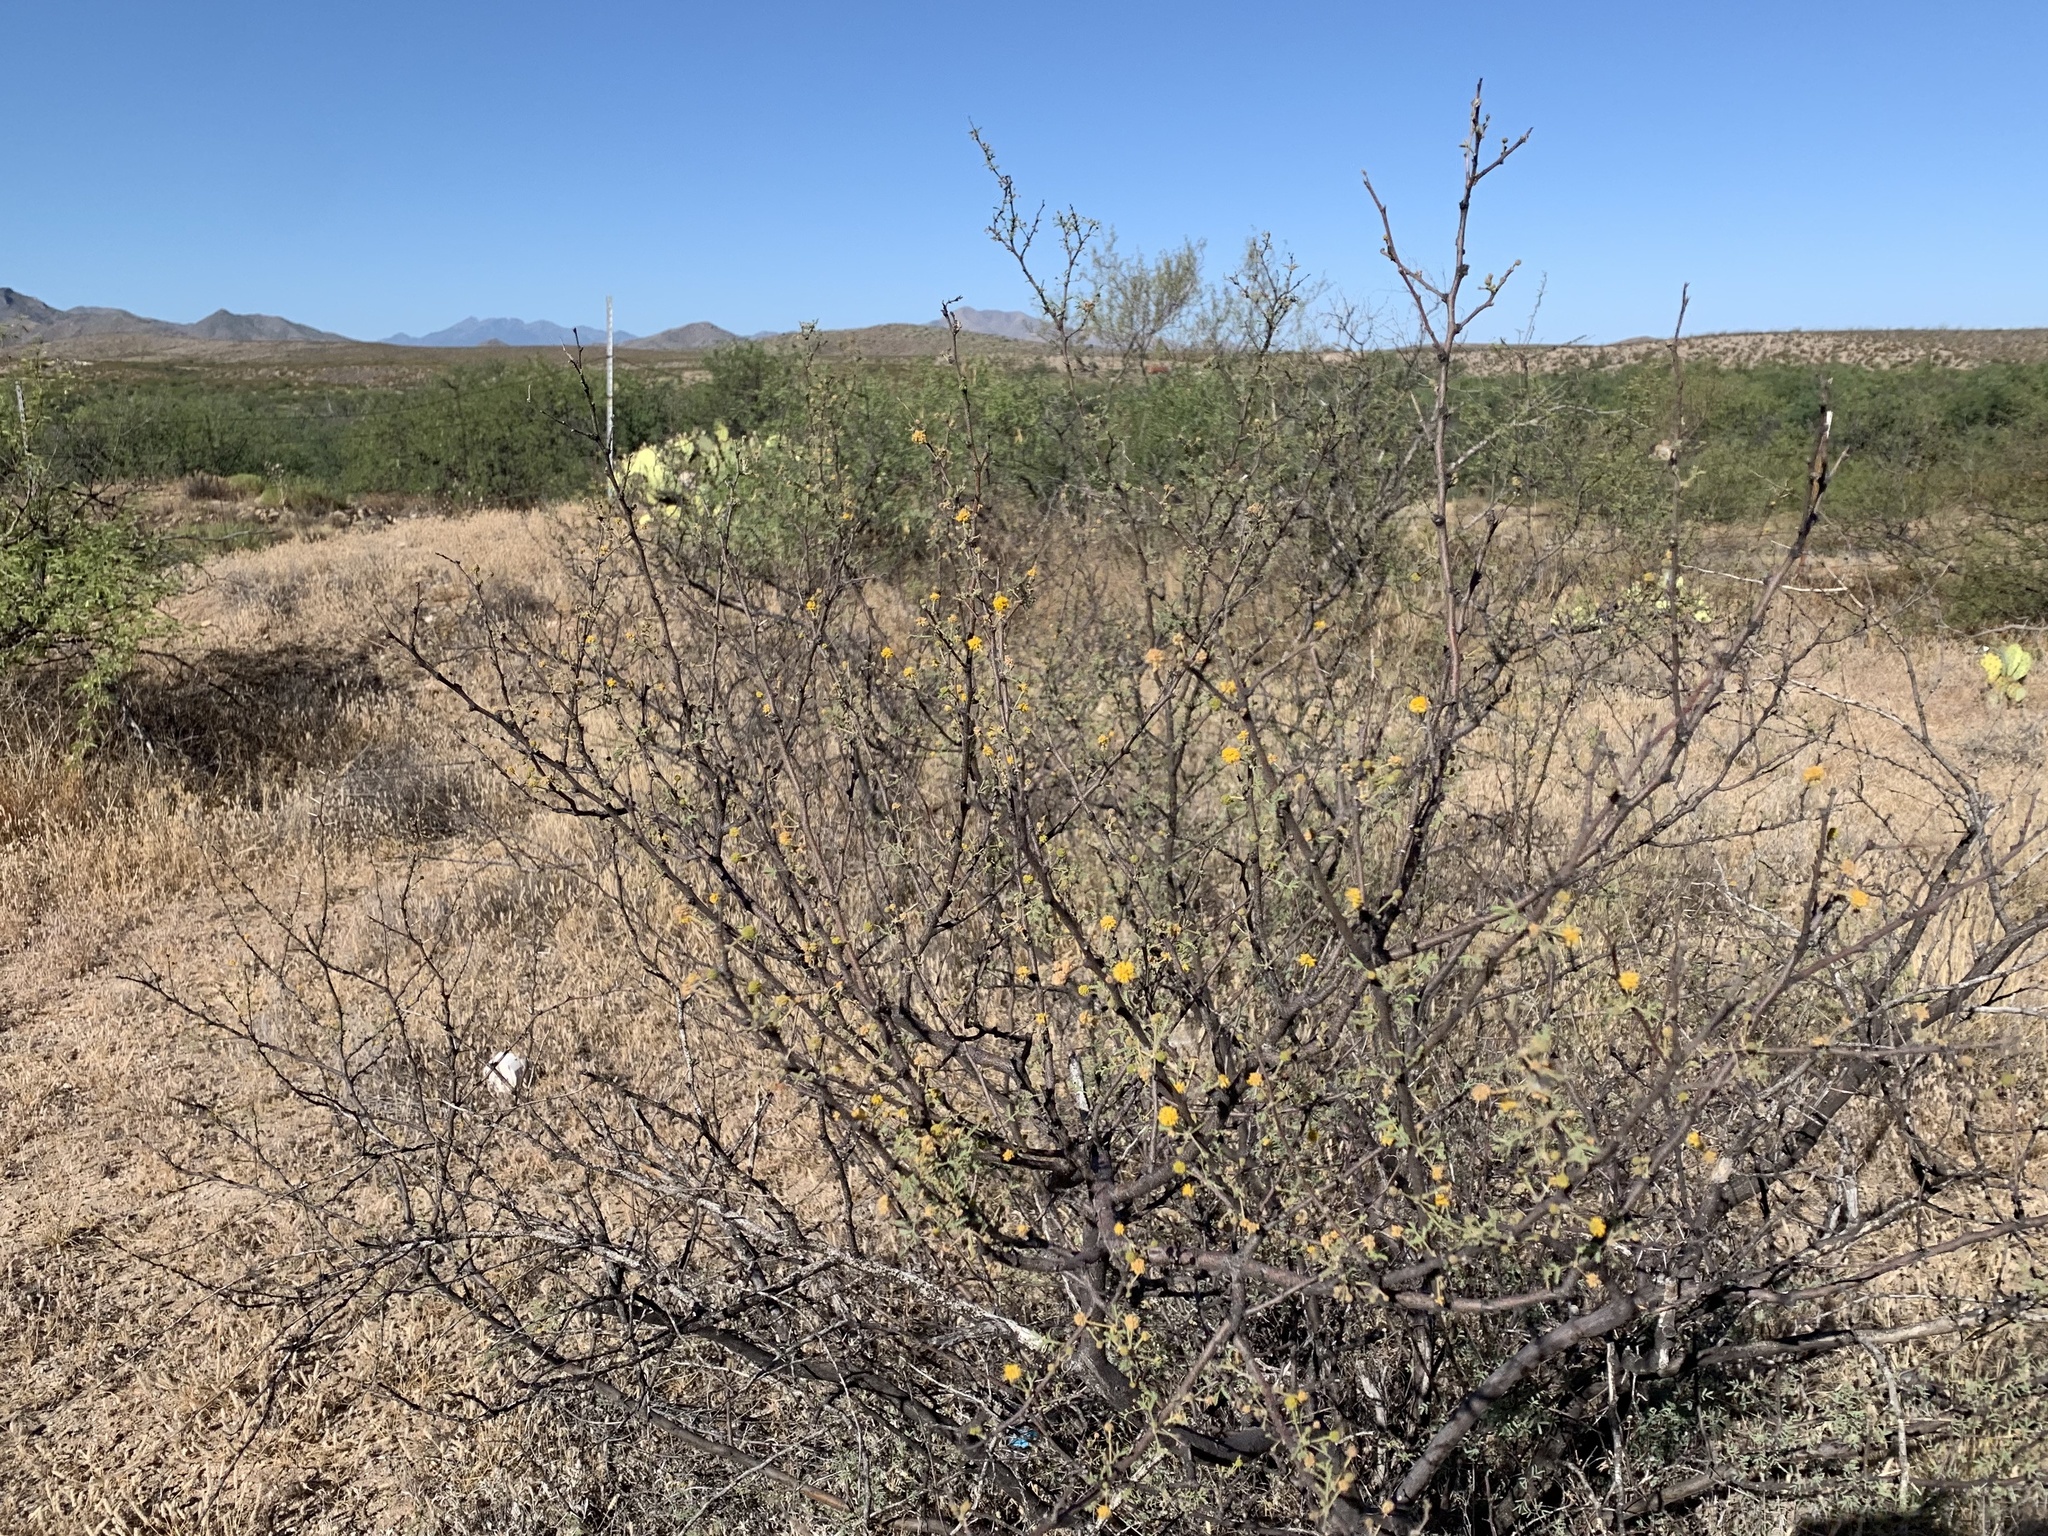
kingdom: Plantae
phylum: Tracheophyta
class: Magnoliopsida
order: Fabales
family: Fabaceae
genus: Vachellia
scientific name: Vachellia constricta
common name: Mescat acacia
